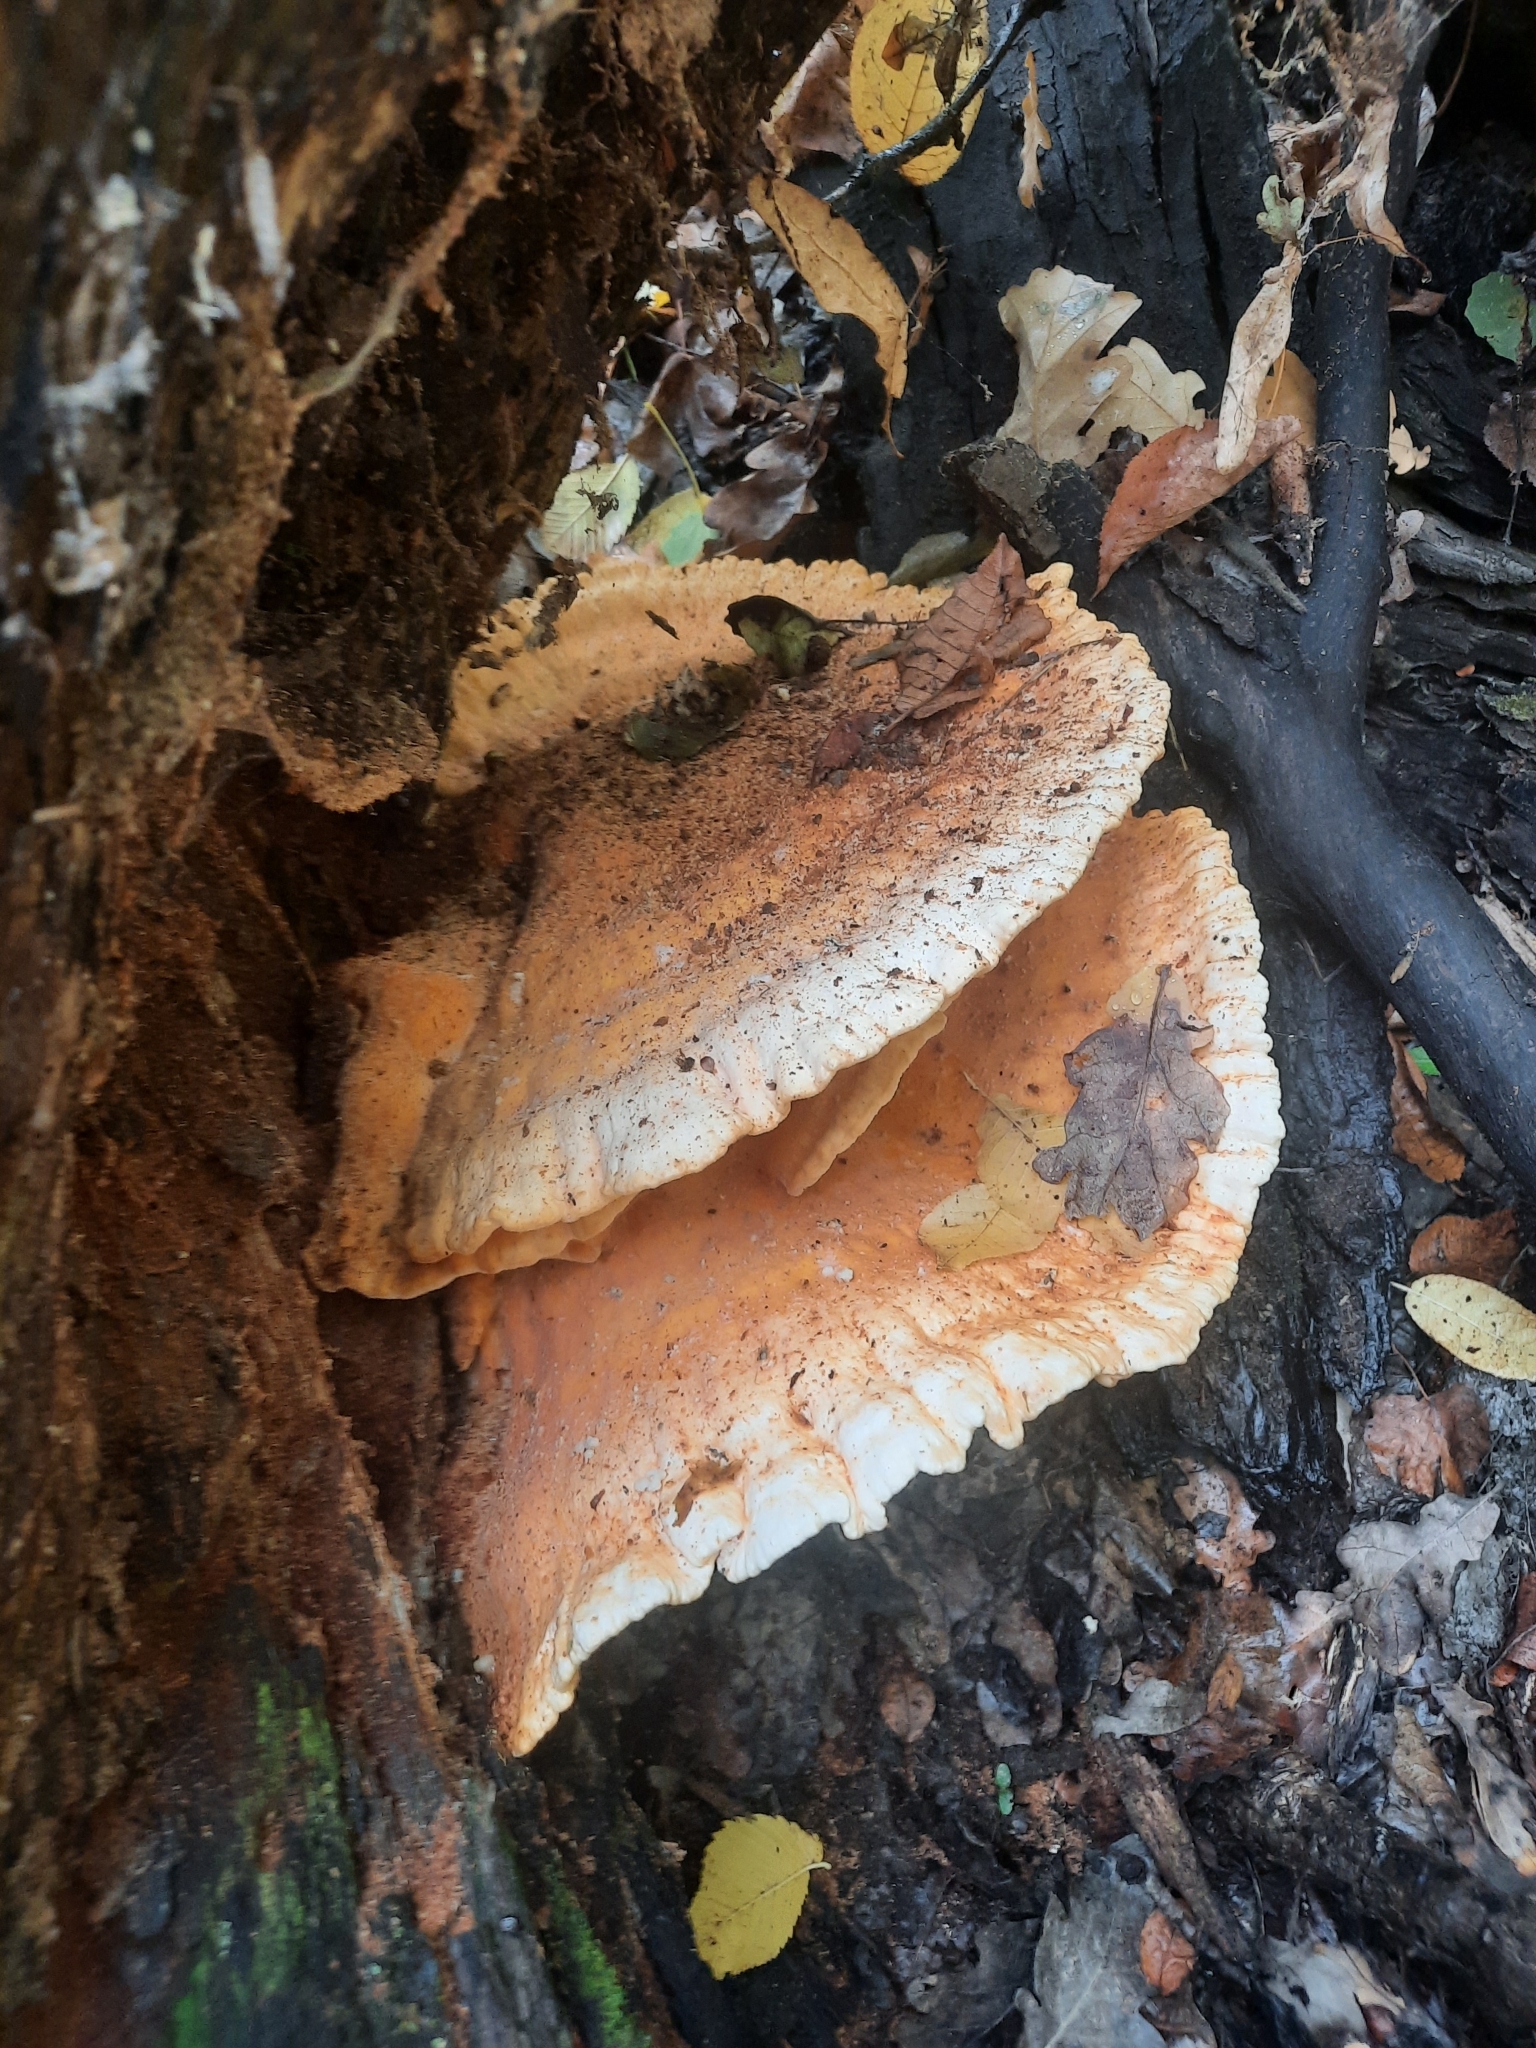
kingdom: Fungi
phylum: Basidiomycota
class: Agaricomycetes
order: Polyporales
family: Laetiporaceae
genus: Laetiporus
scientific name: Laetiporus sulphureus
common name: Chicken of the woods
